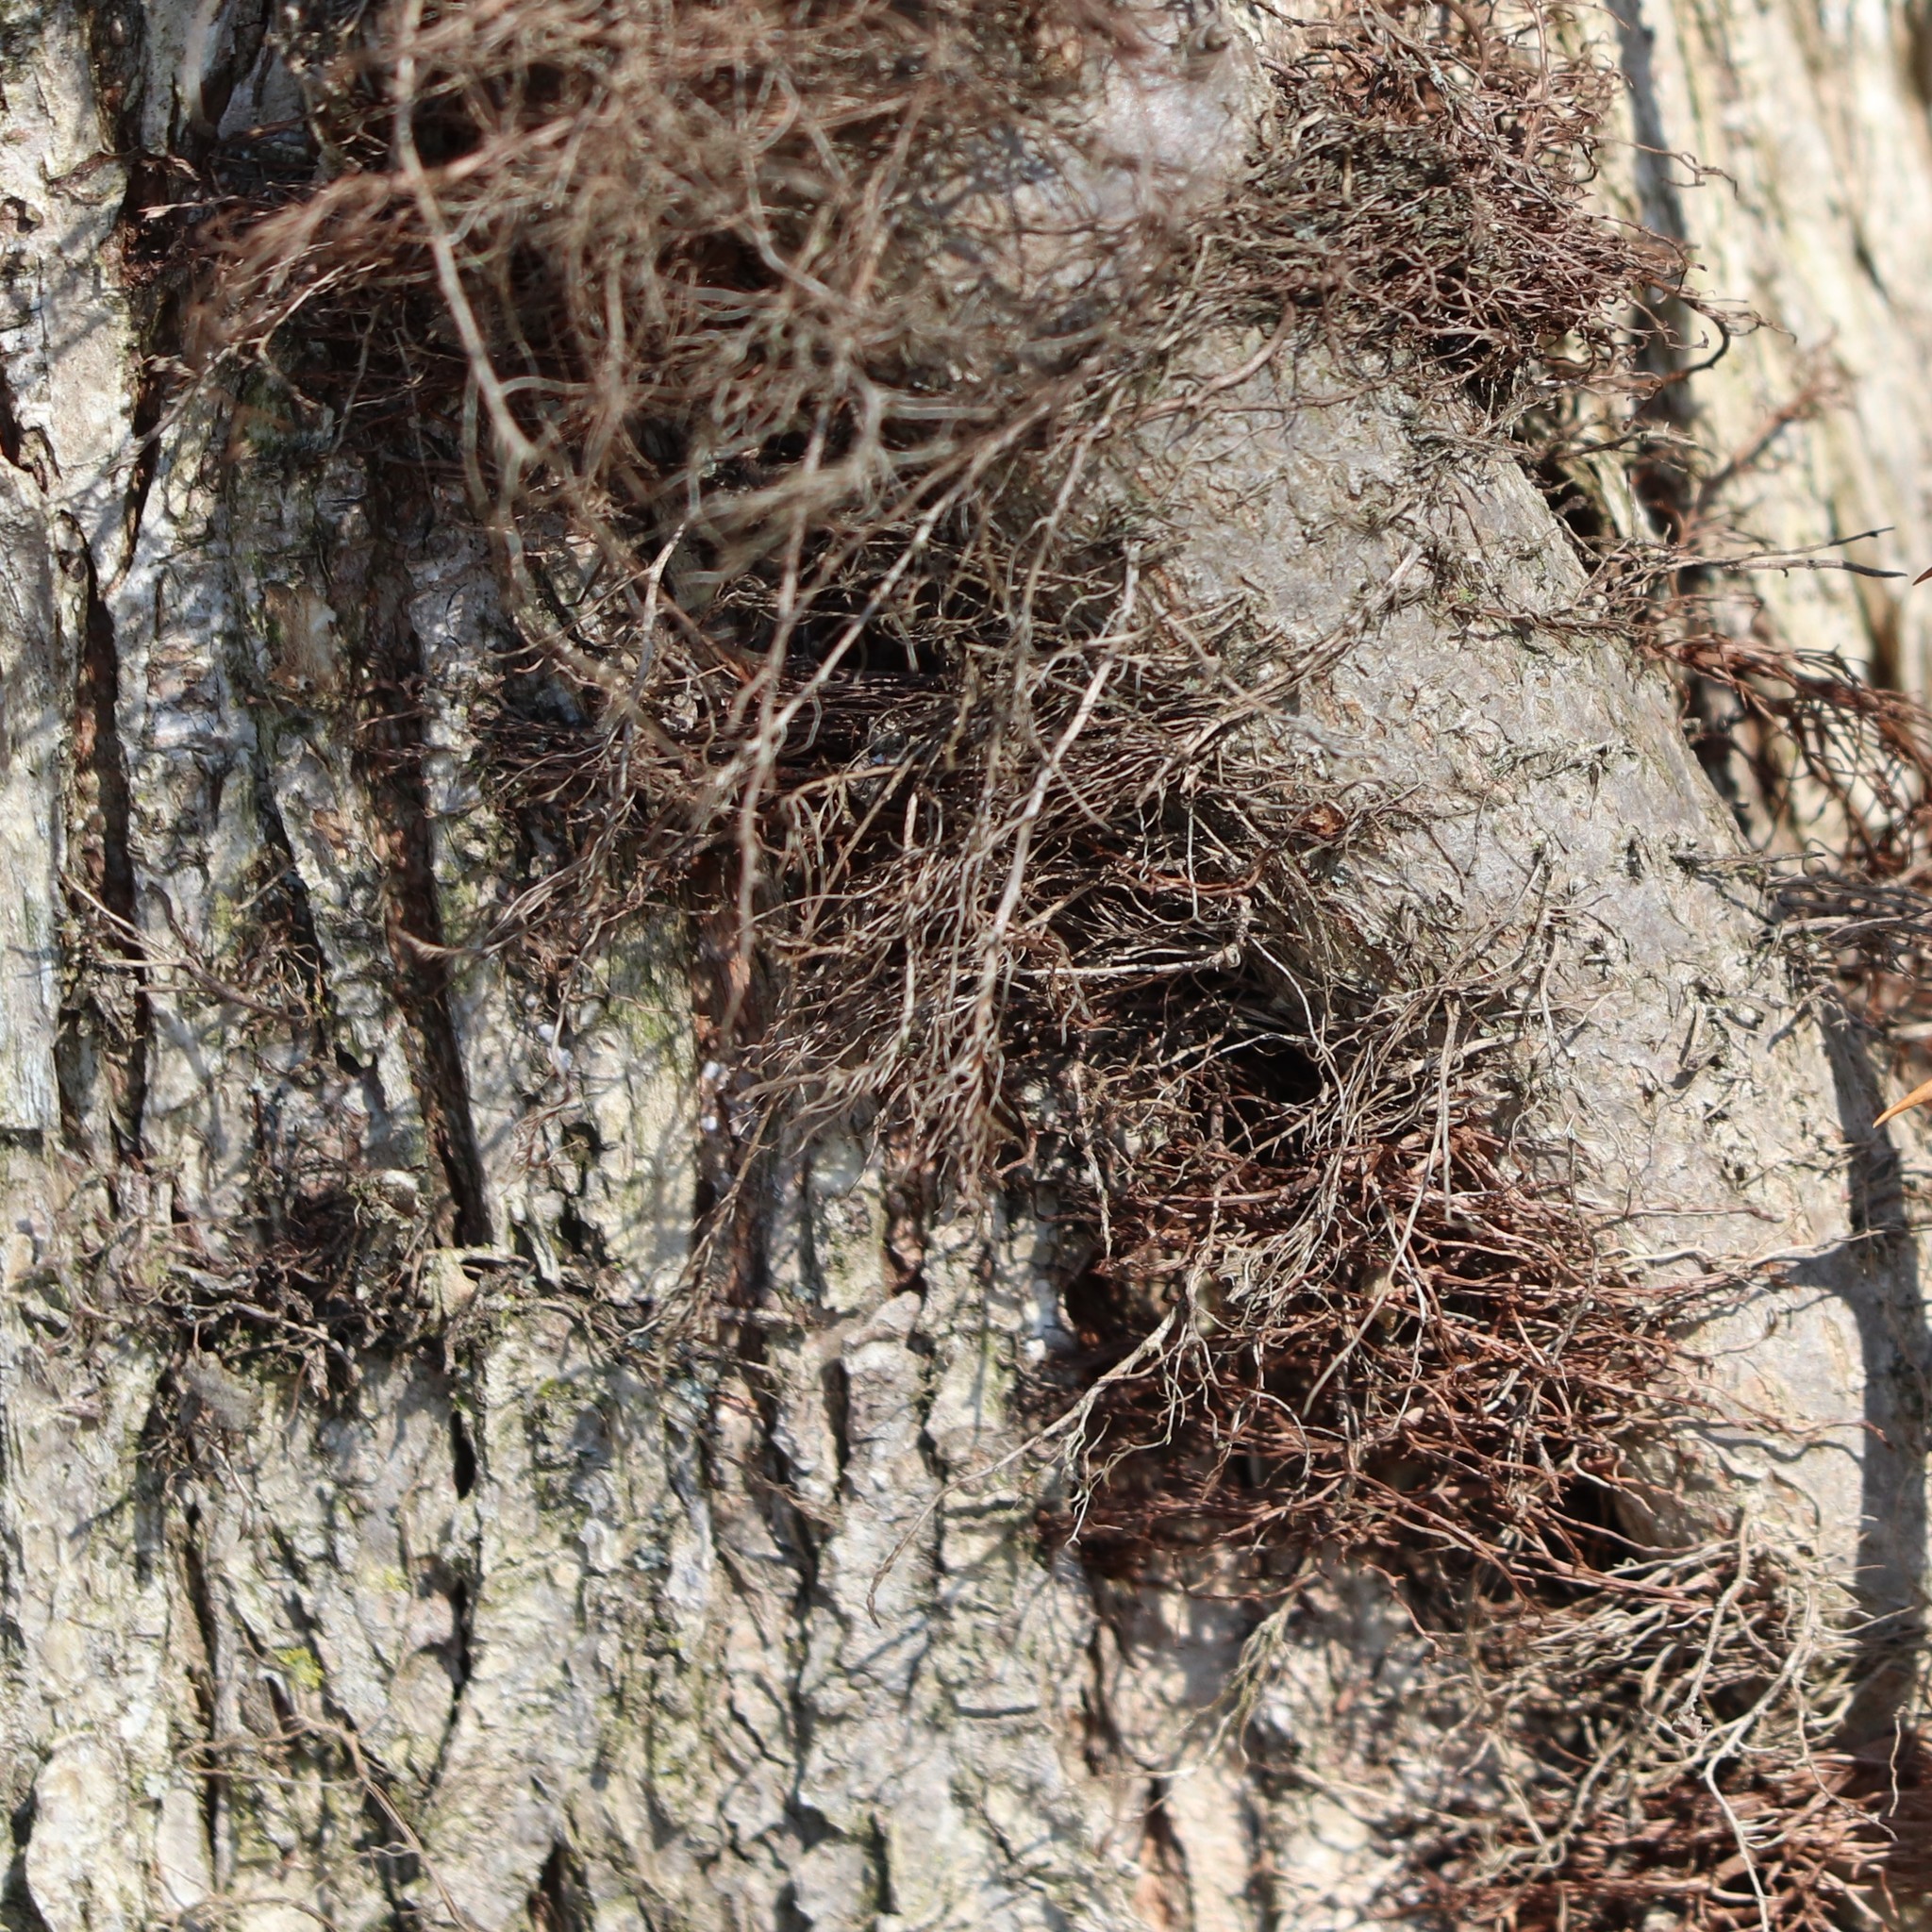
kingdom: Plantae
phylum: Tracheophyta
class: Magnoliopsida
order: Sapindales
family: Anacardiaceae
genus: Toxicodendron
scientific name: Toxicodendron radicans
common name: Poison ivy
